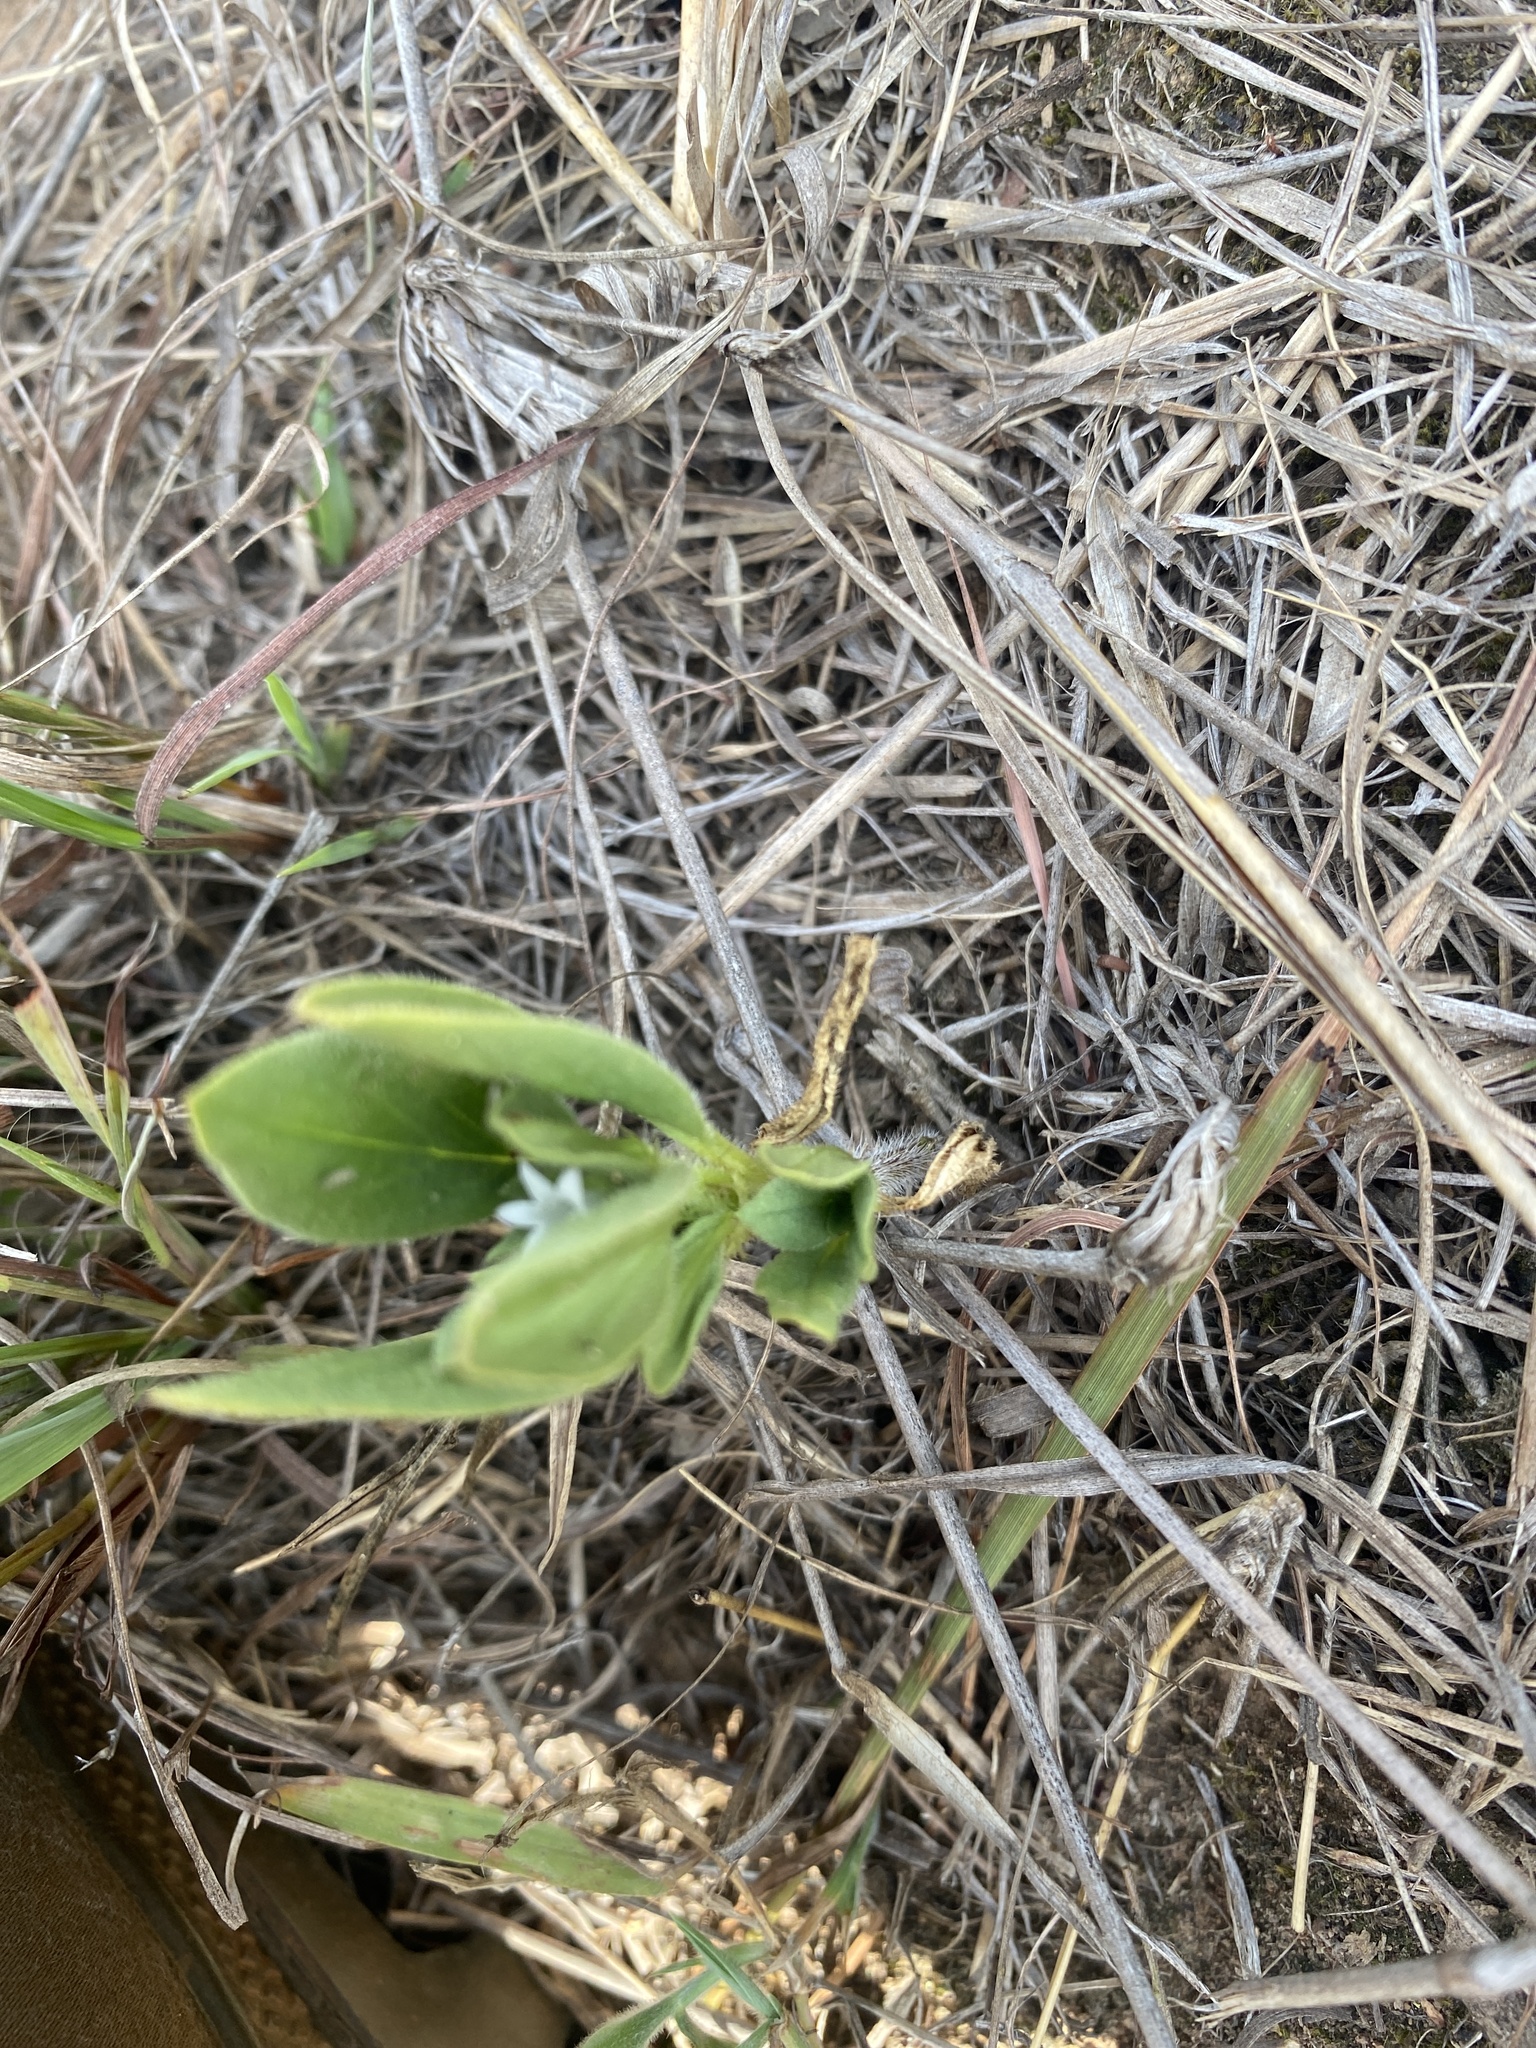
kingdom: Plantae
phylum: Tracheophyta
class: Magnoliopsida
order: Gentianales
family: Rubiaceae
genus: Richardia
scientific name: Richardia brasiliensis
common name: Tropical mexican clover
